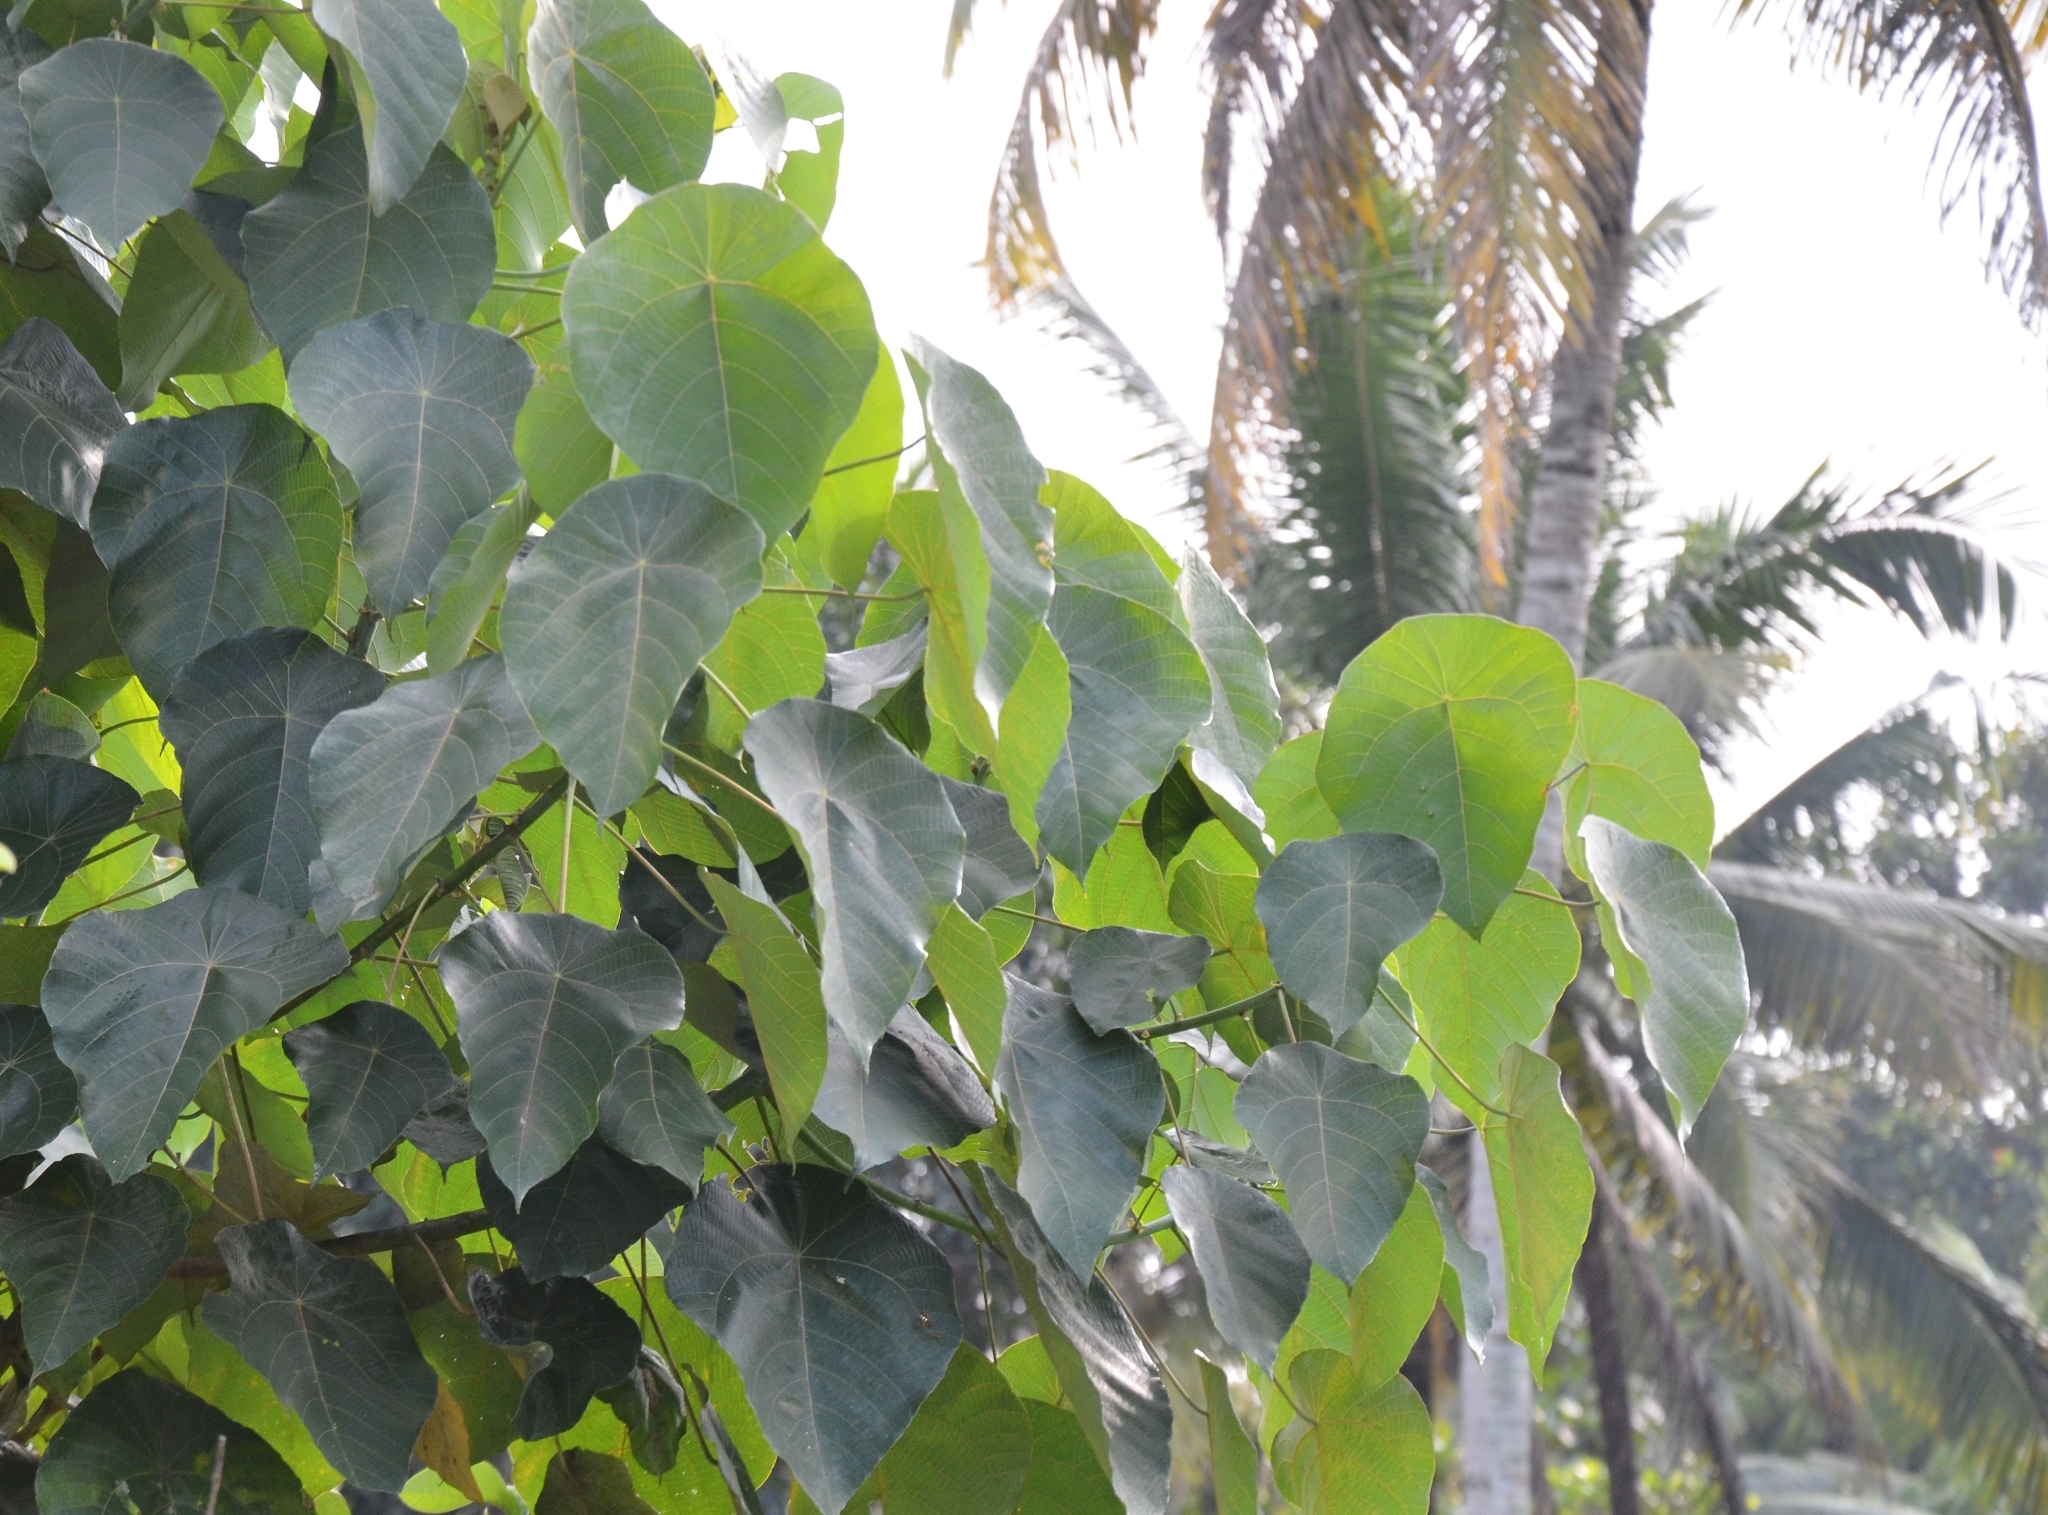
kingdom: Plantae
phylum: Tracheophyta
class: Magnoliopsida
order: Malpighiales
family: Euphorbiaceae
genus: Macaranga
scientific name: Macaranga peltata
